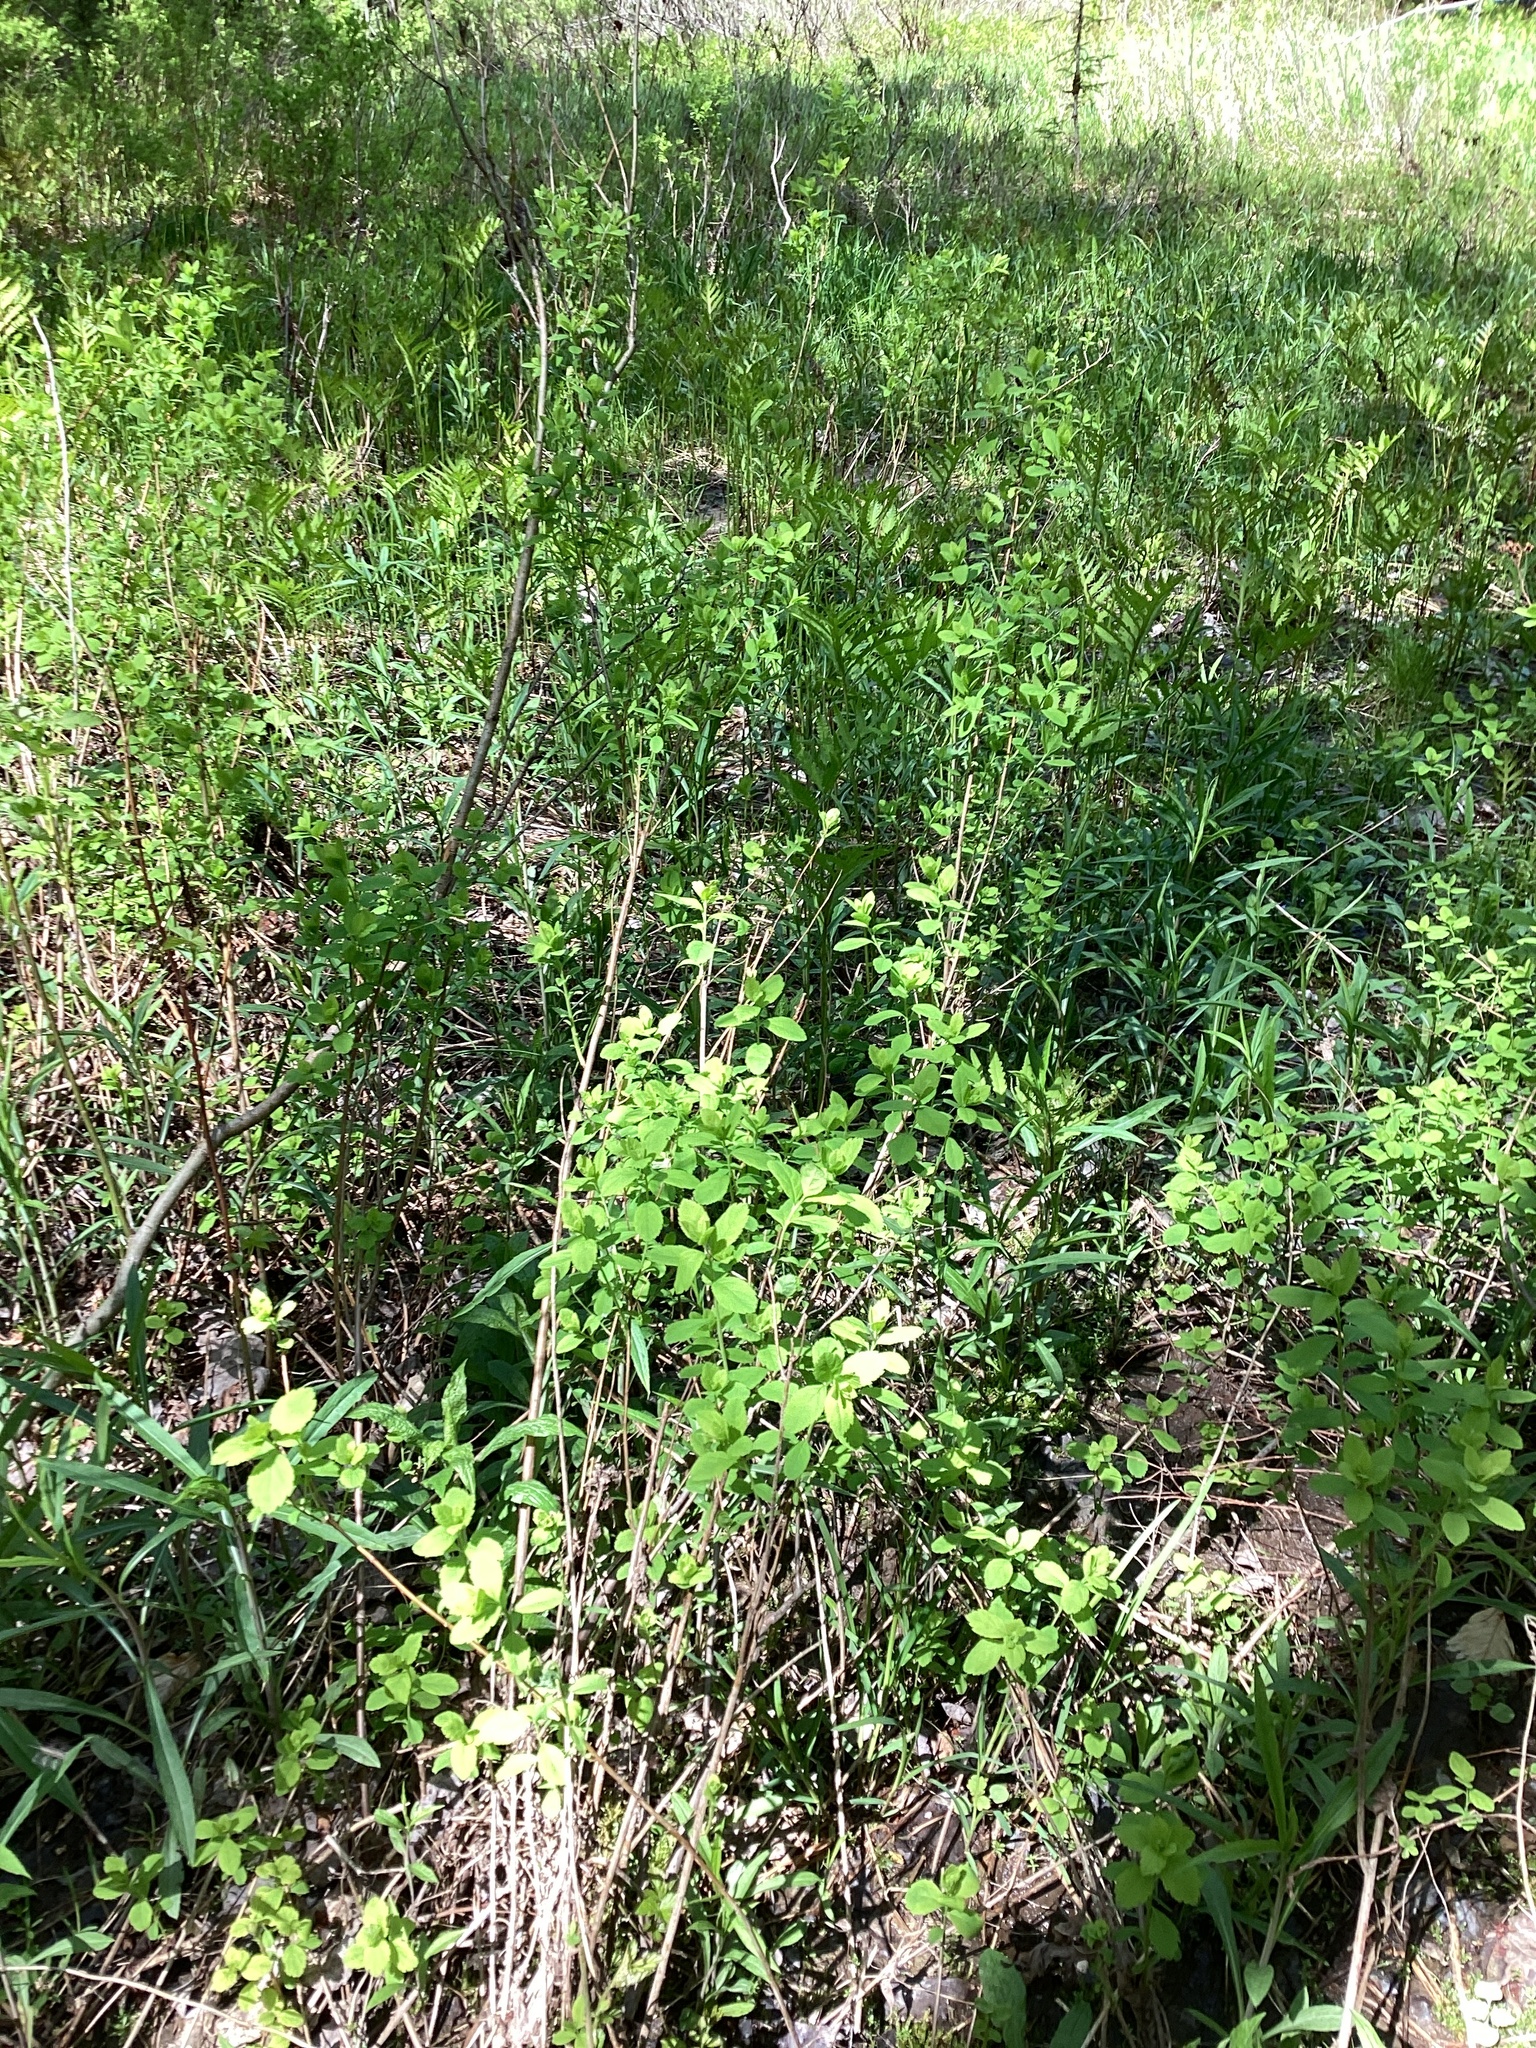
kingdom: Plantae
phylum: Tracheophyta
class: Magnoliopsida
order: Rosales
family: Rosaceae
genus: Spiraea
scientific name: Spiraea alba
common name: Pale bridewort
